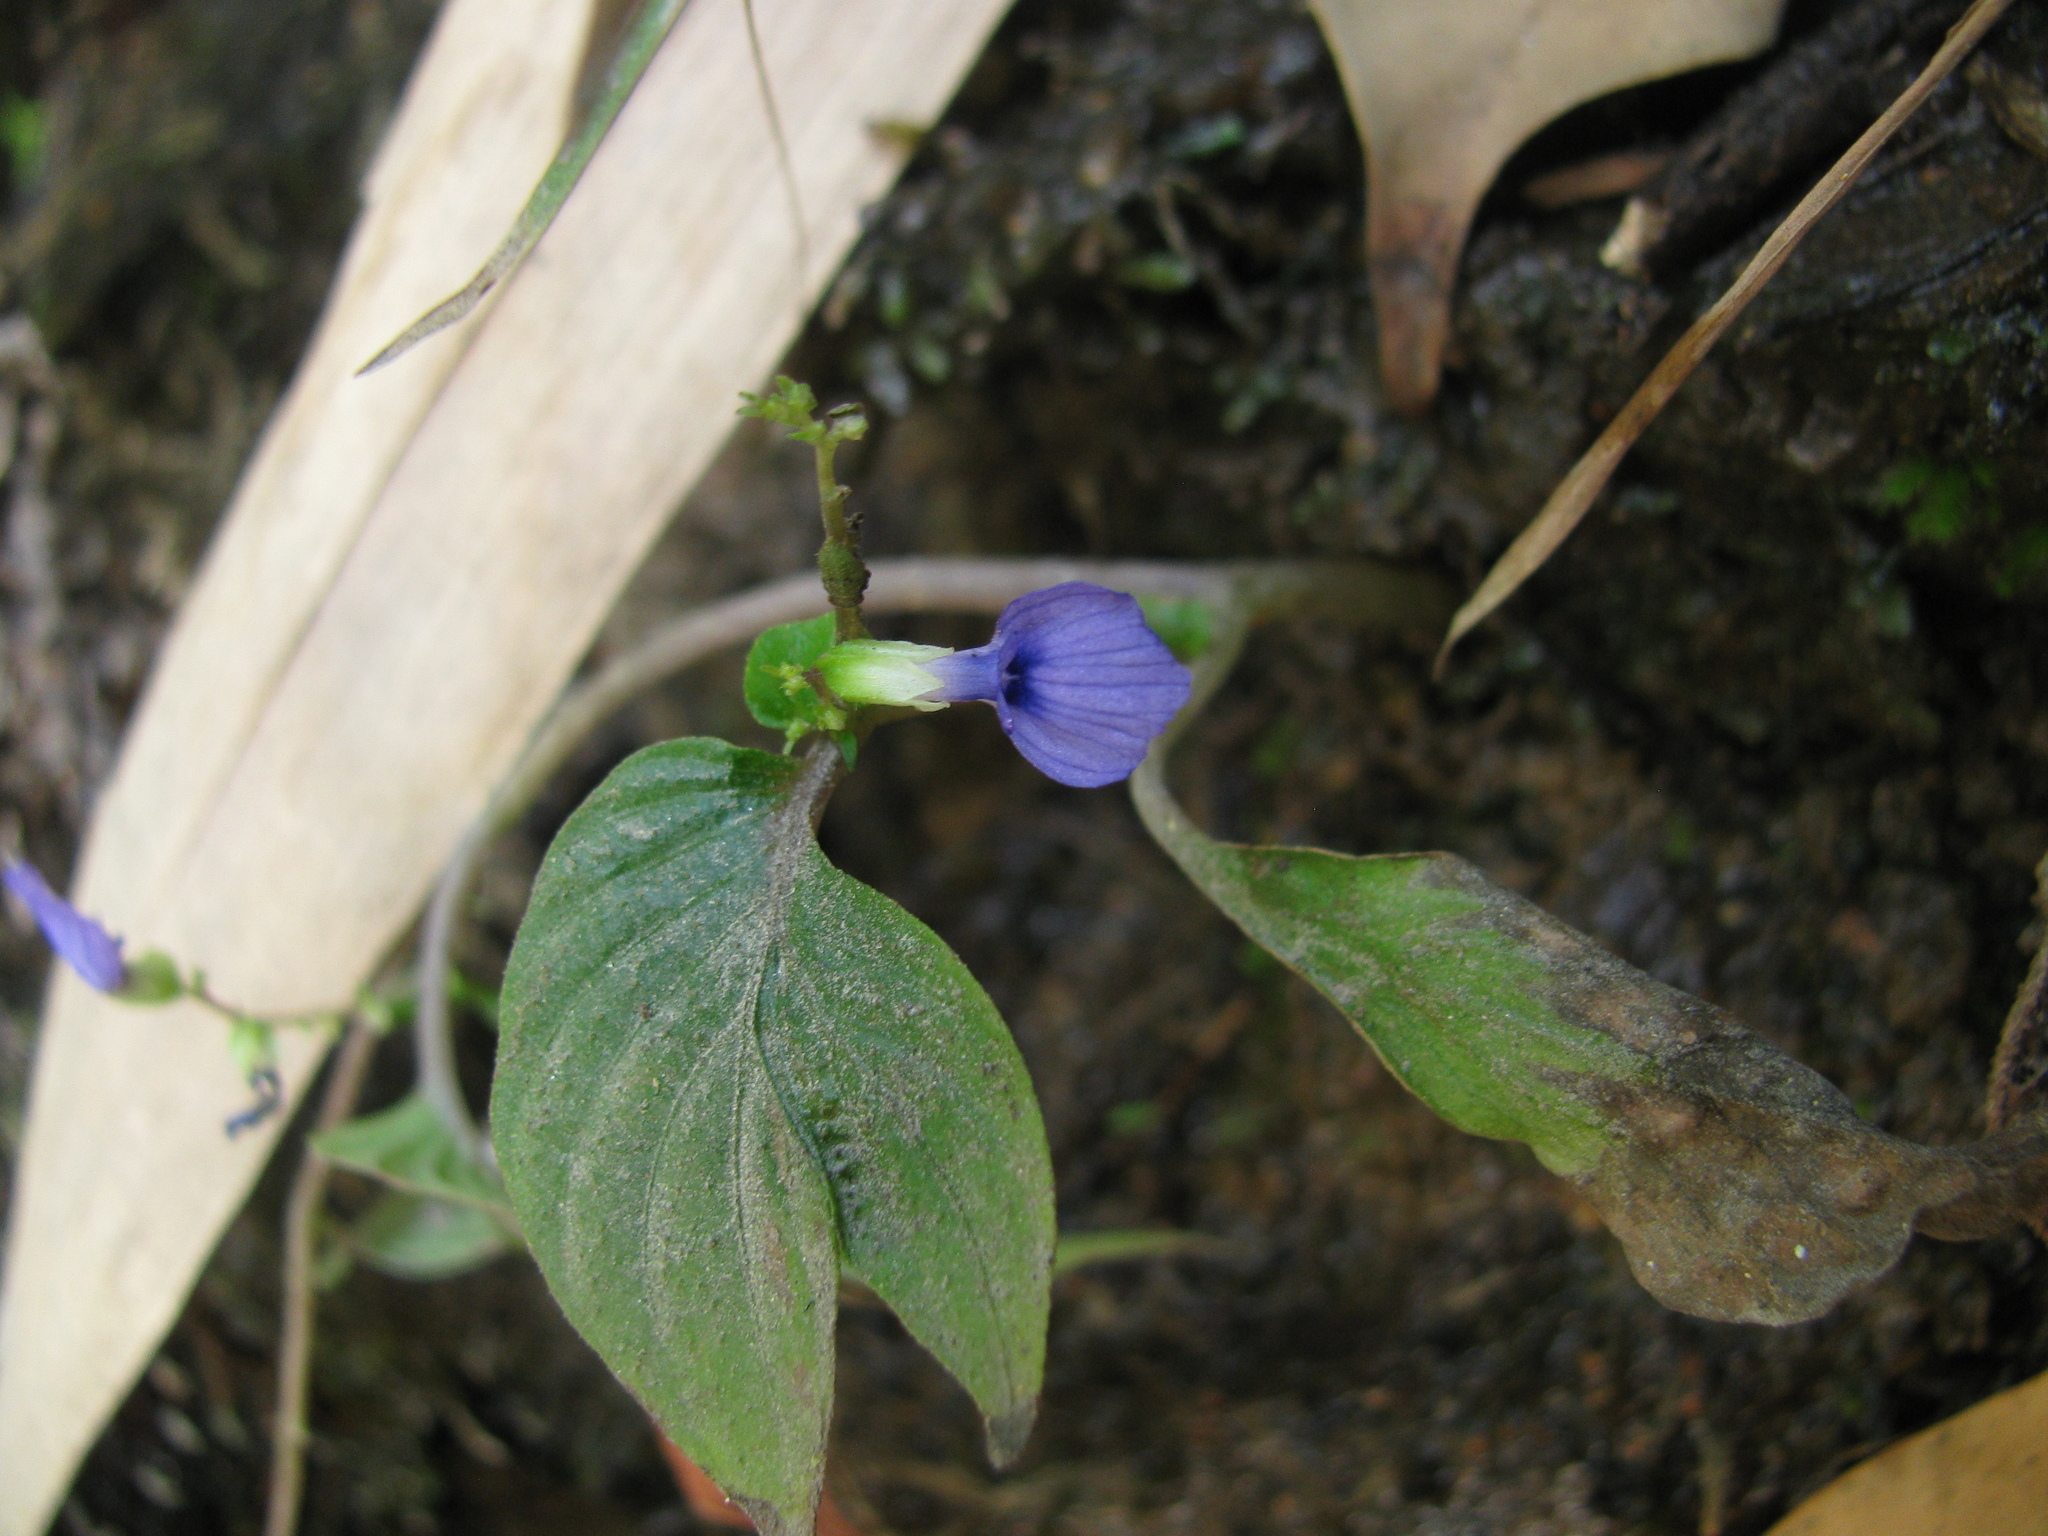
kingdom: Plantae
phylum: Tracheophyta
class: Magnoliopsida
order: Lamiales
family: Gesneriaceae
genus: Rhynchoglossum
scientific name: Rhynchoglossum notonianum
